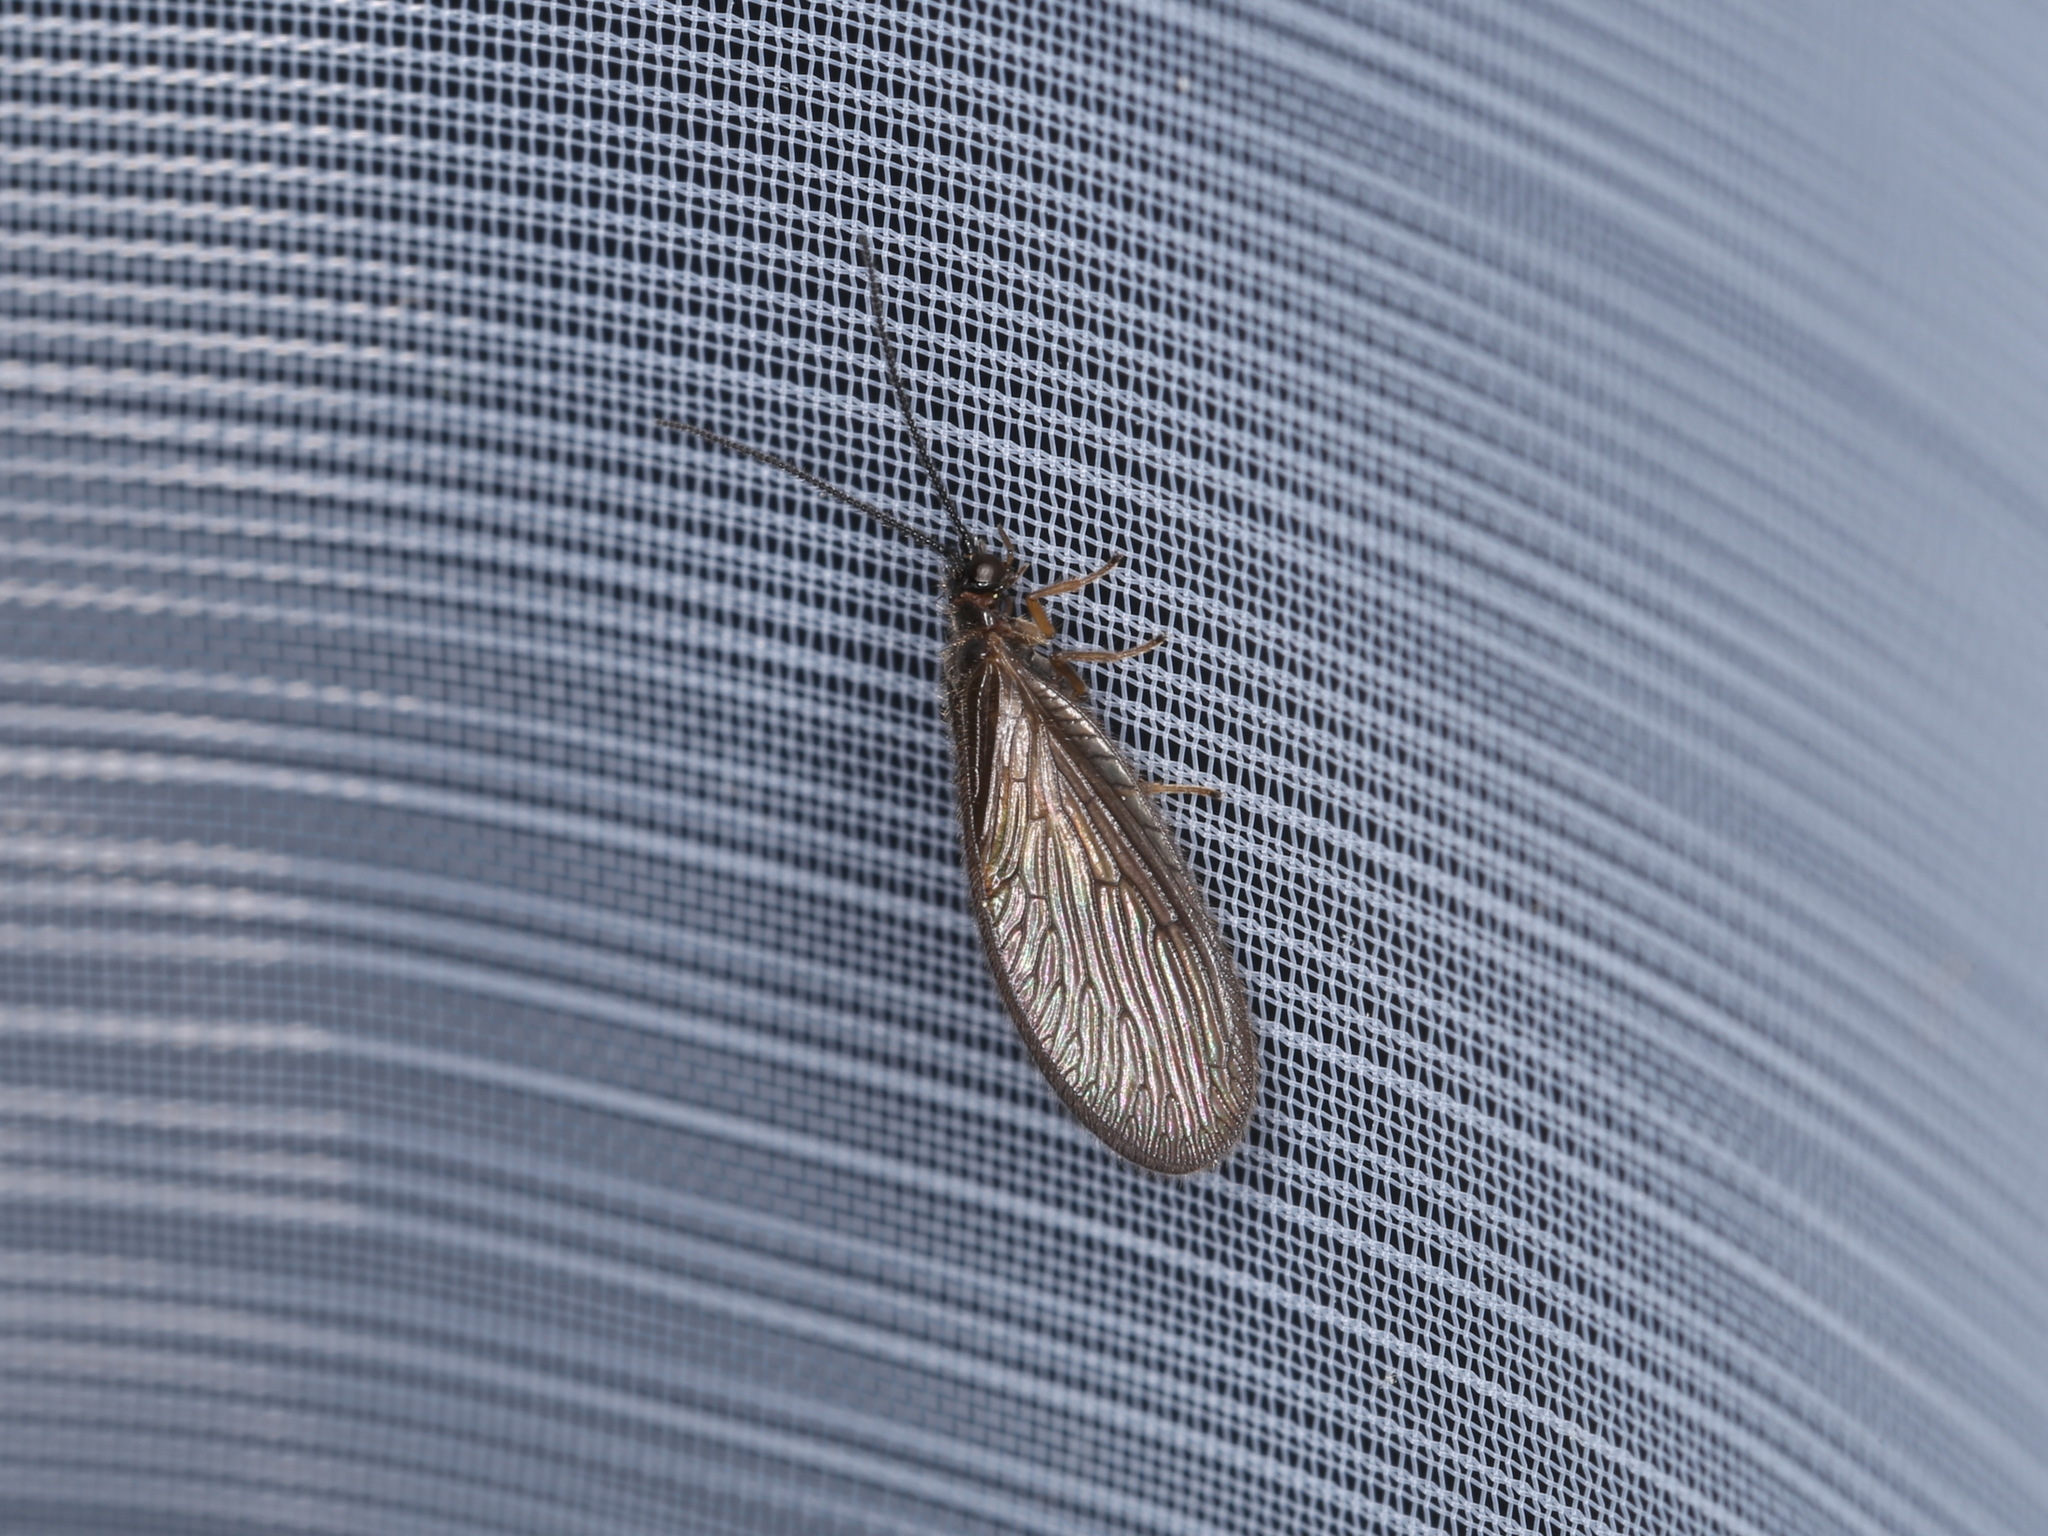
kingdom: Animalia
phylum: Arthropoda
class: Insecta
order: Neuroptera
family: Sisyridae
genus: Sisyra
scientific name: Sisyra nigra
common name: Black spongillafly
